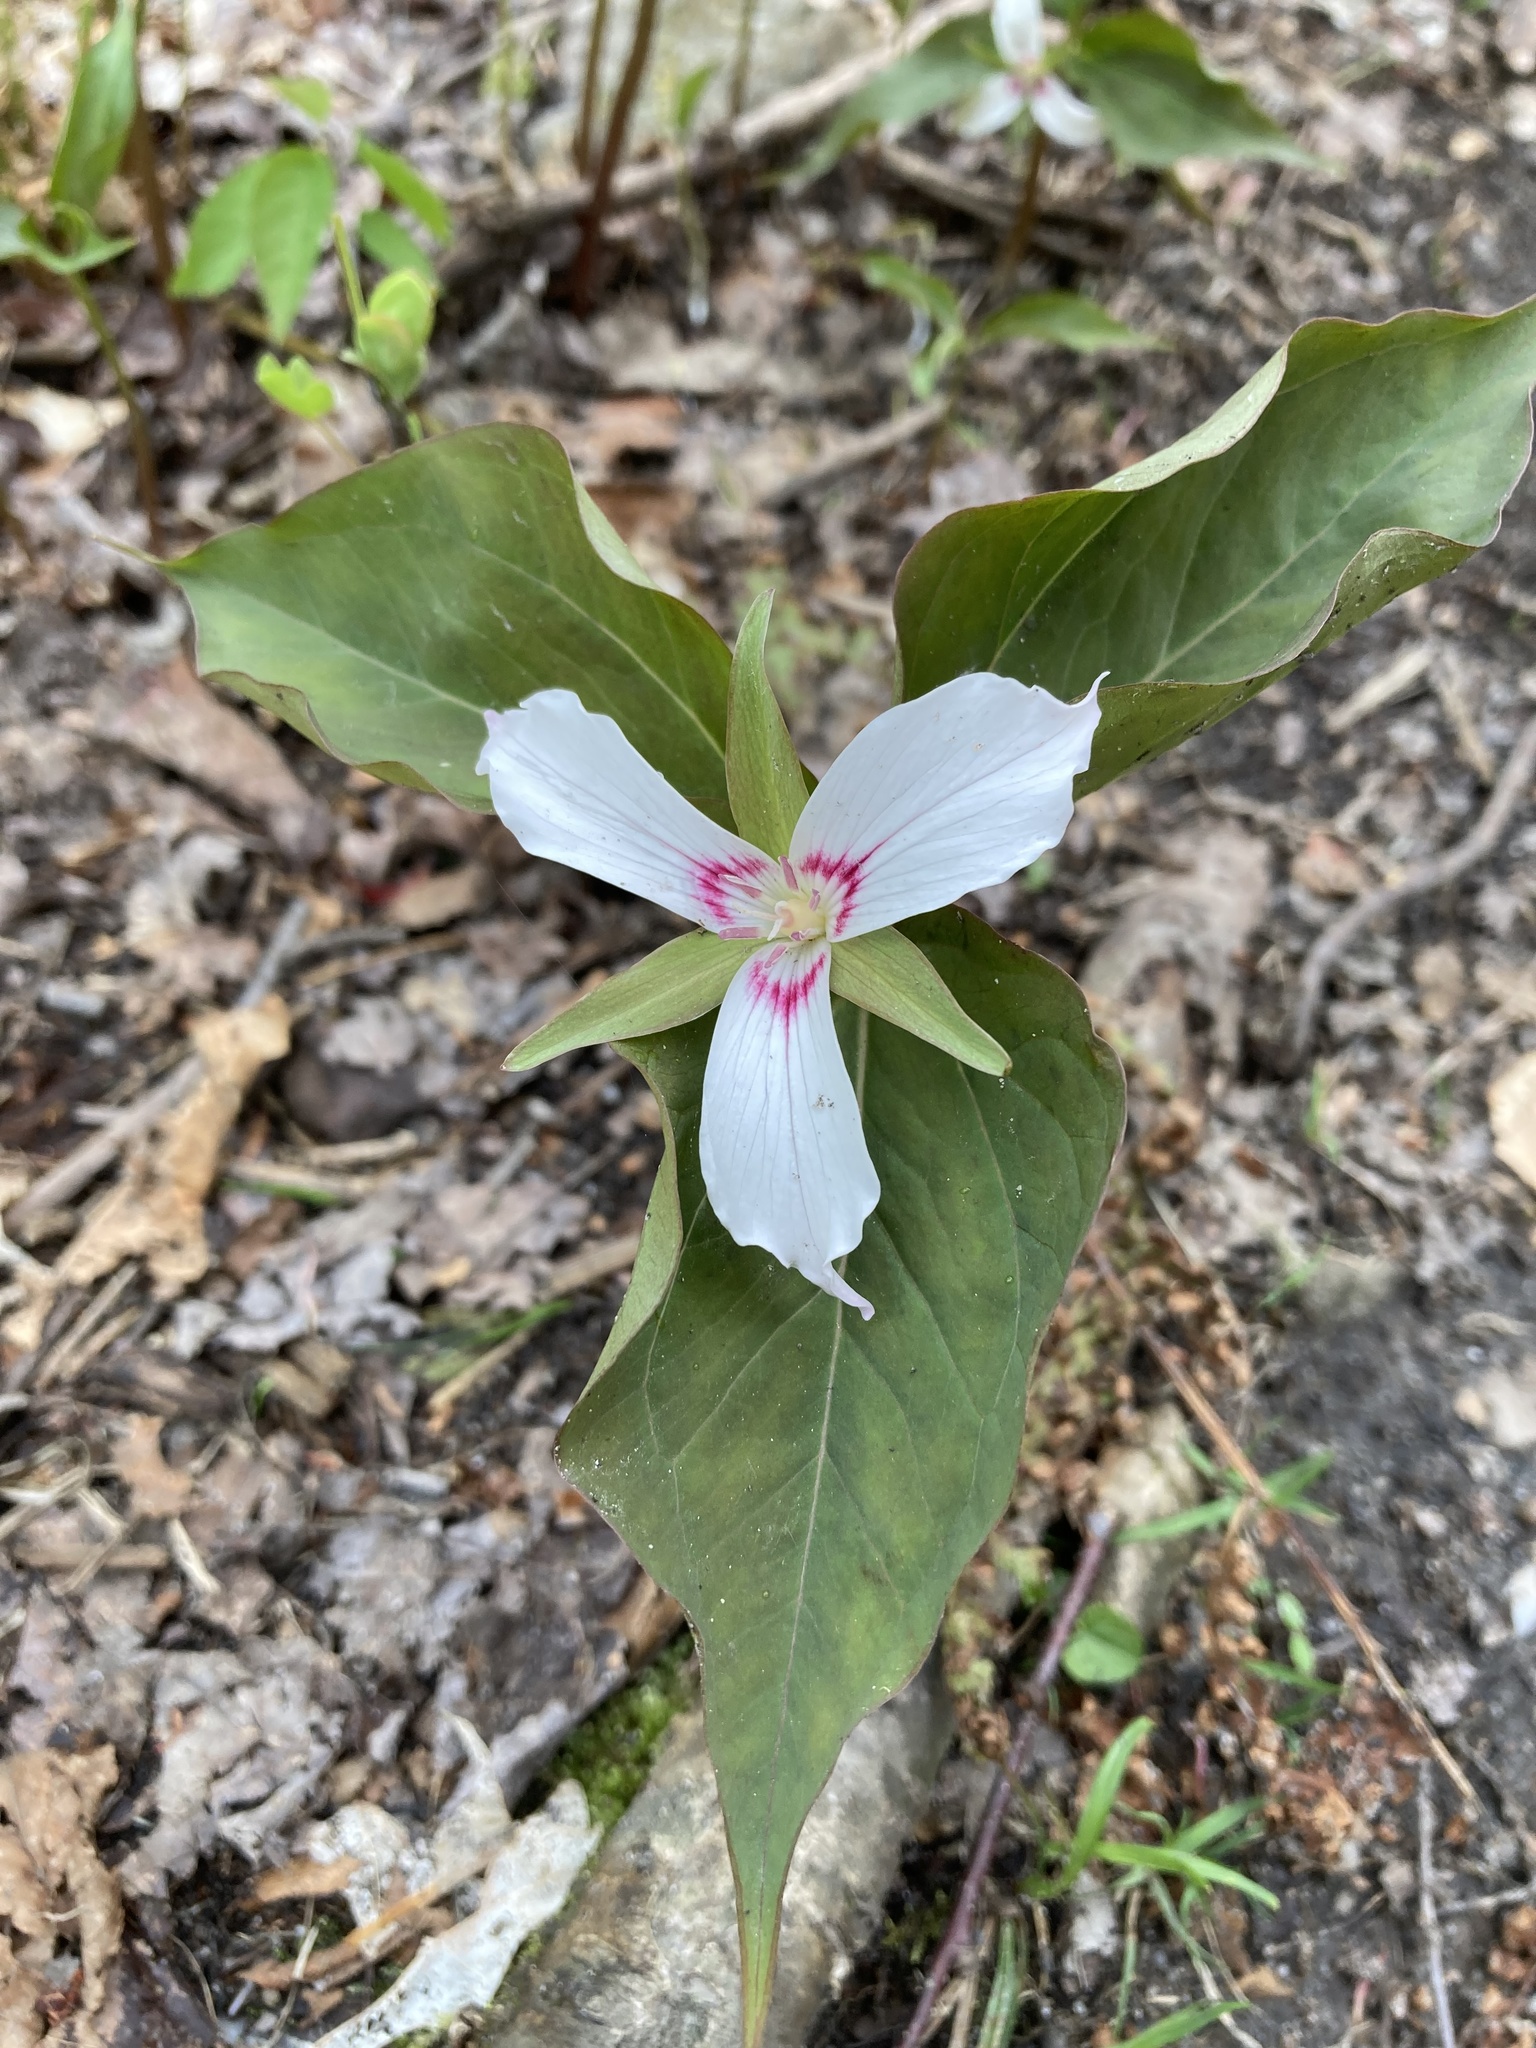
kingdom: Plantae
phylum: Tracheophyta
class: Liliopsida
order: Liliales
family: Melanthiaceae
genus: Trillium
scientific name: Trillium undulatum
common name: Paint trillium
